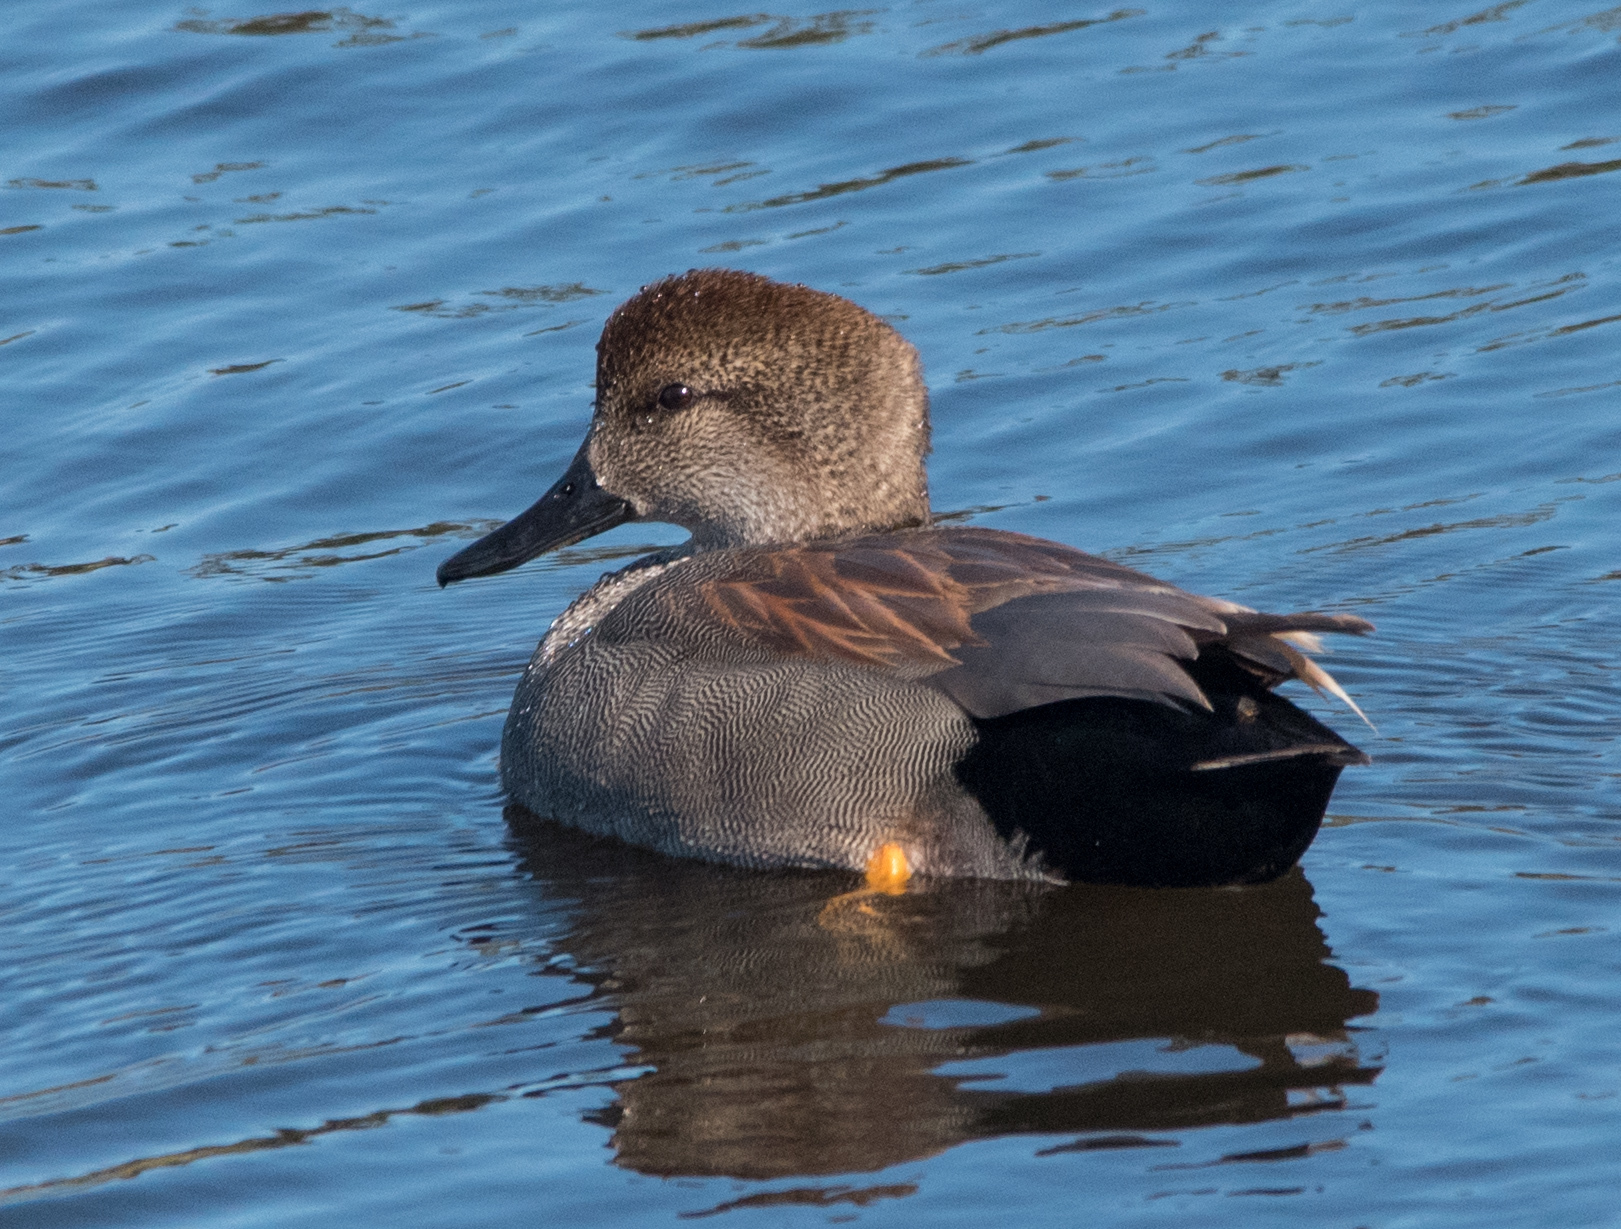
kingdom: Animalia
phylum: Chordata
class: Aves
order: Anseriformes
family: Anatidae
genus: Mareca
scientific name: Mareca strepera
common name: Gadwall
